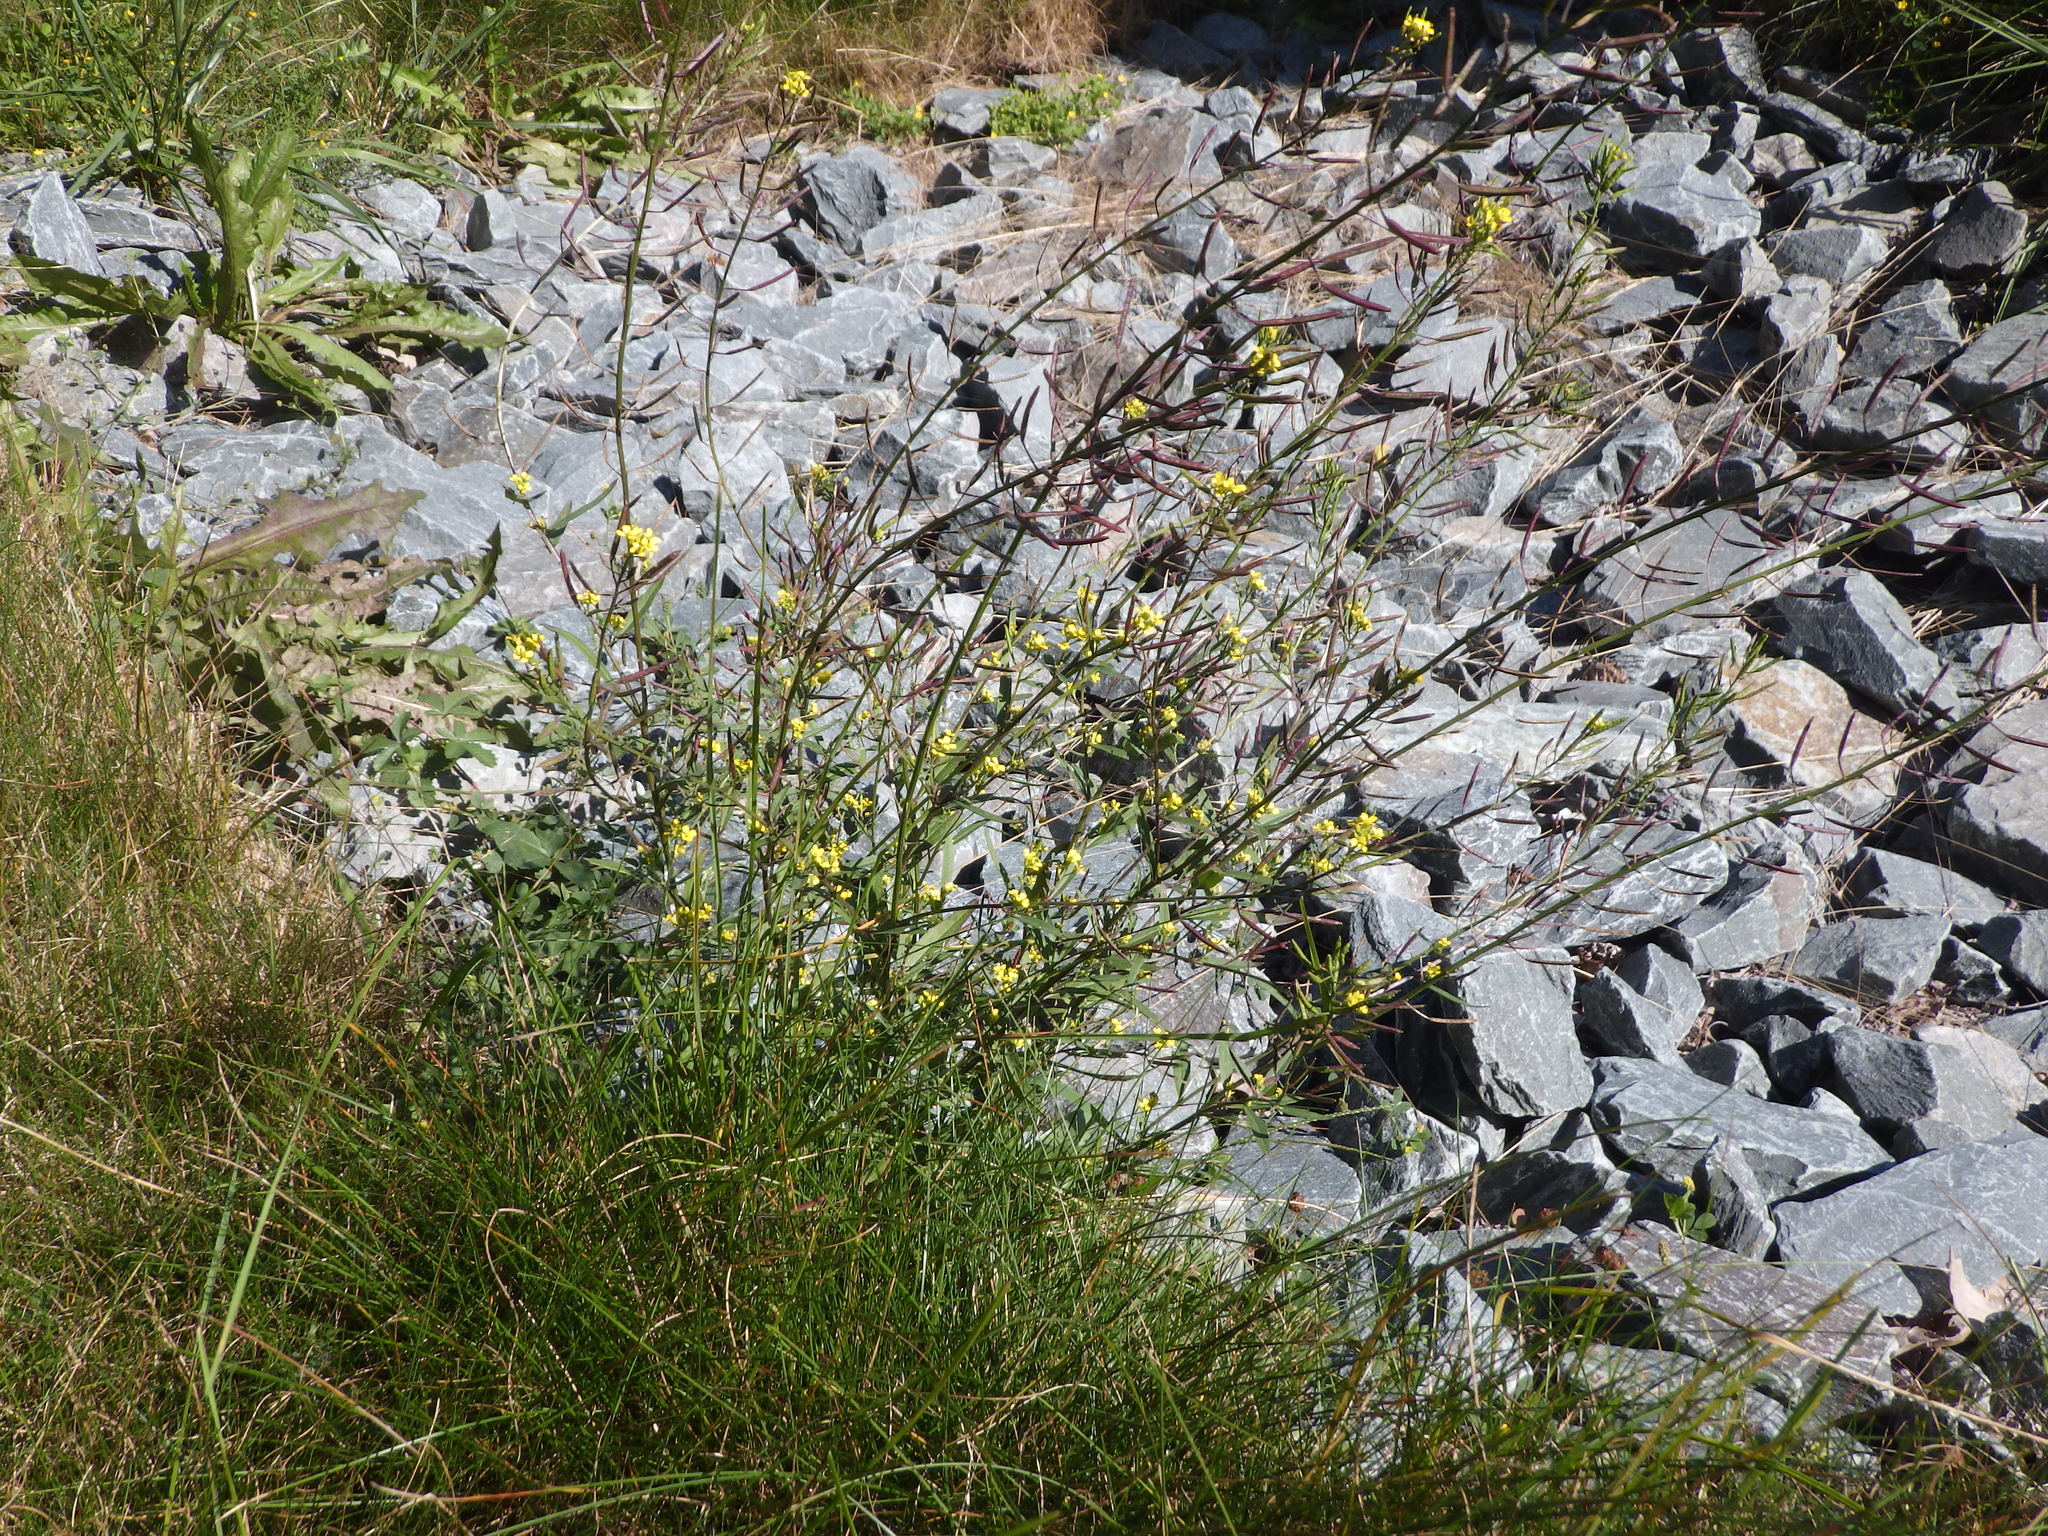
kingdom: Plantae
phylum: Tracheophyta
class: Magnoliopsida
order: Brassicales
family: Brassicaceae
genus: Erysimum
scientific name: Erysimum cheiranthoides
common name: Treacle mustard
